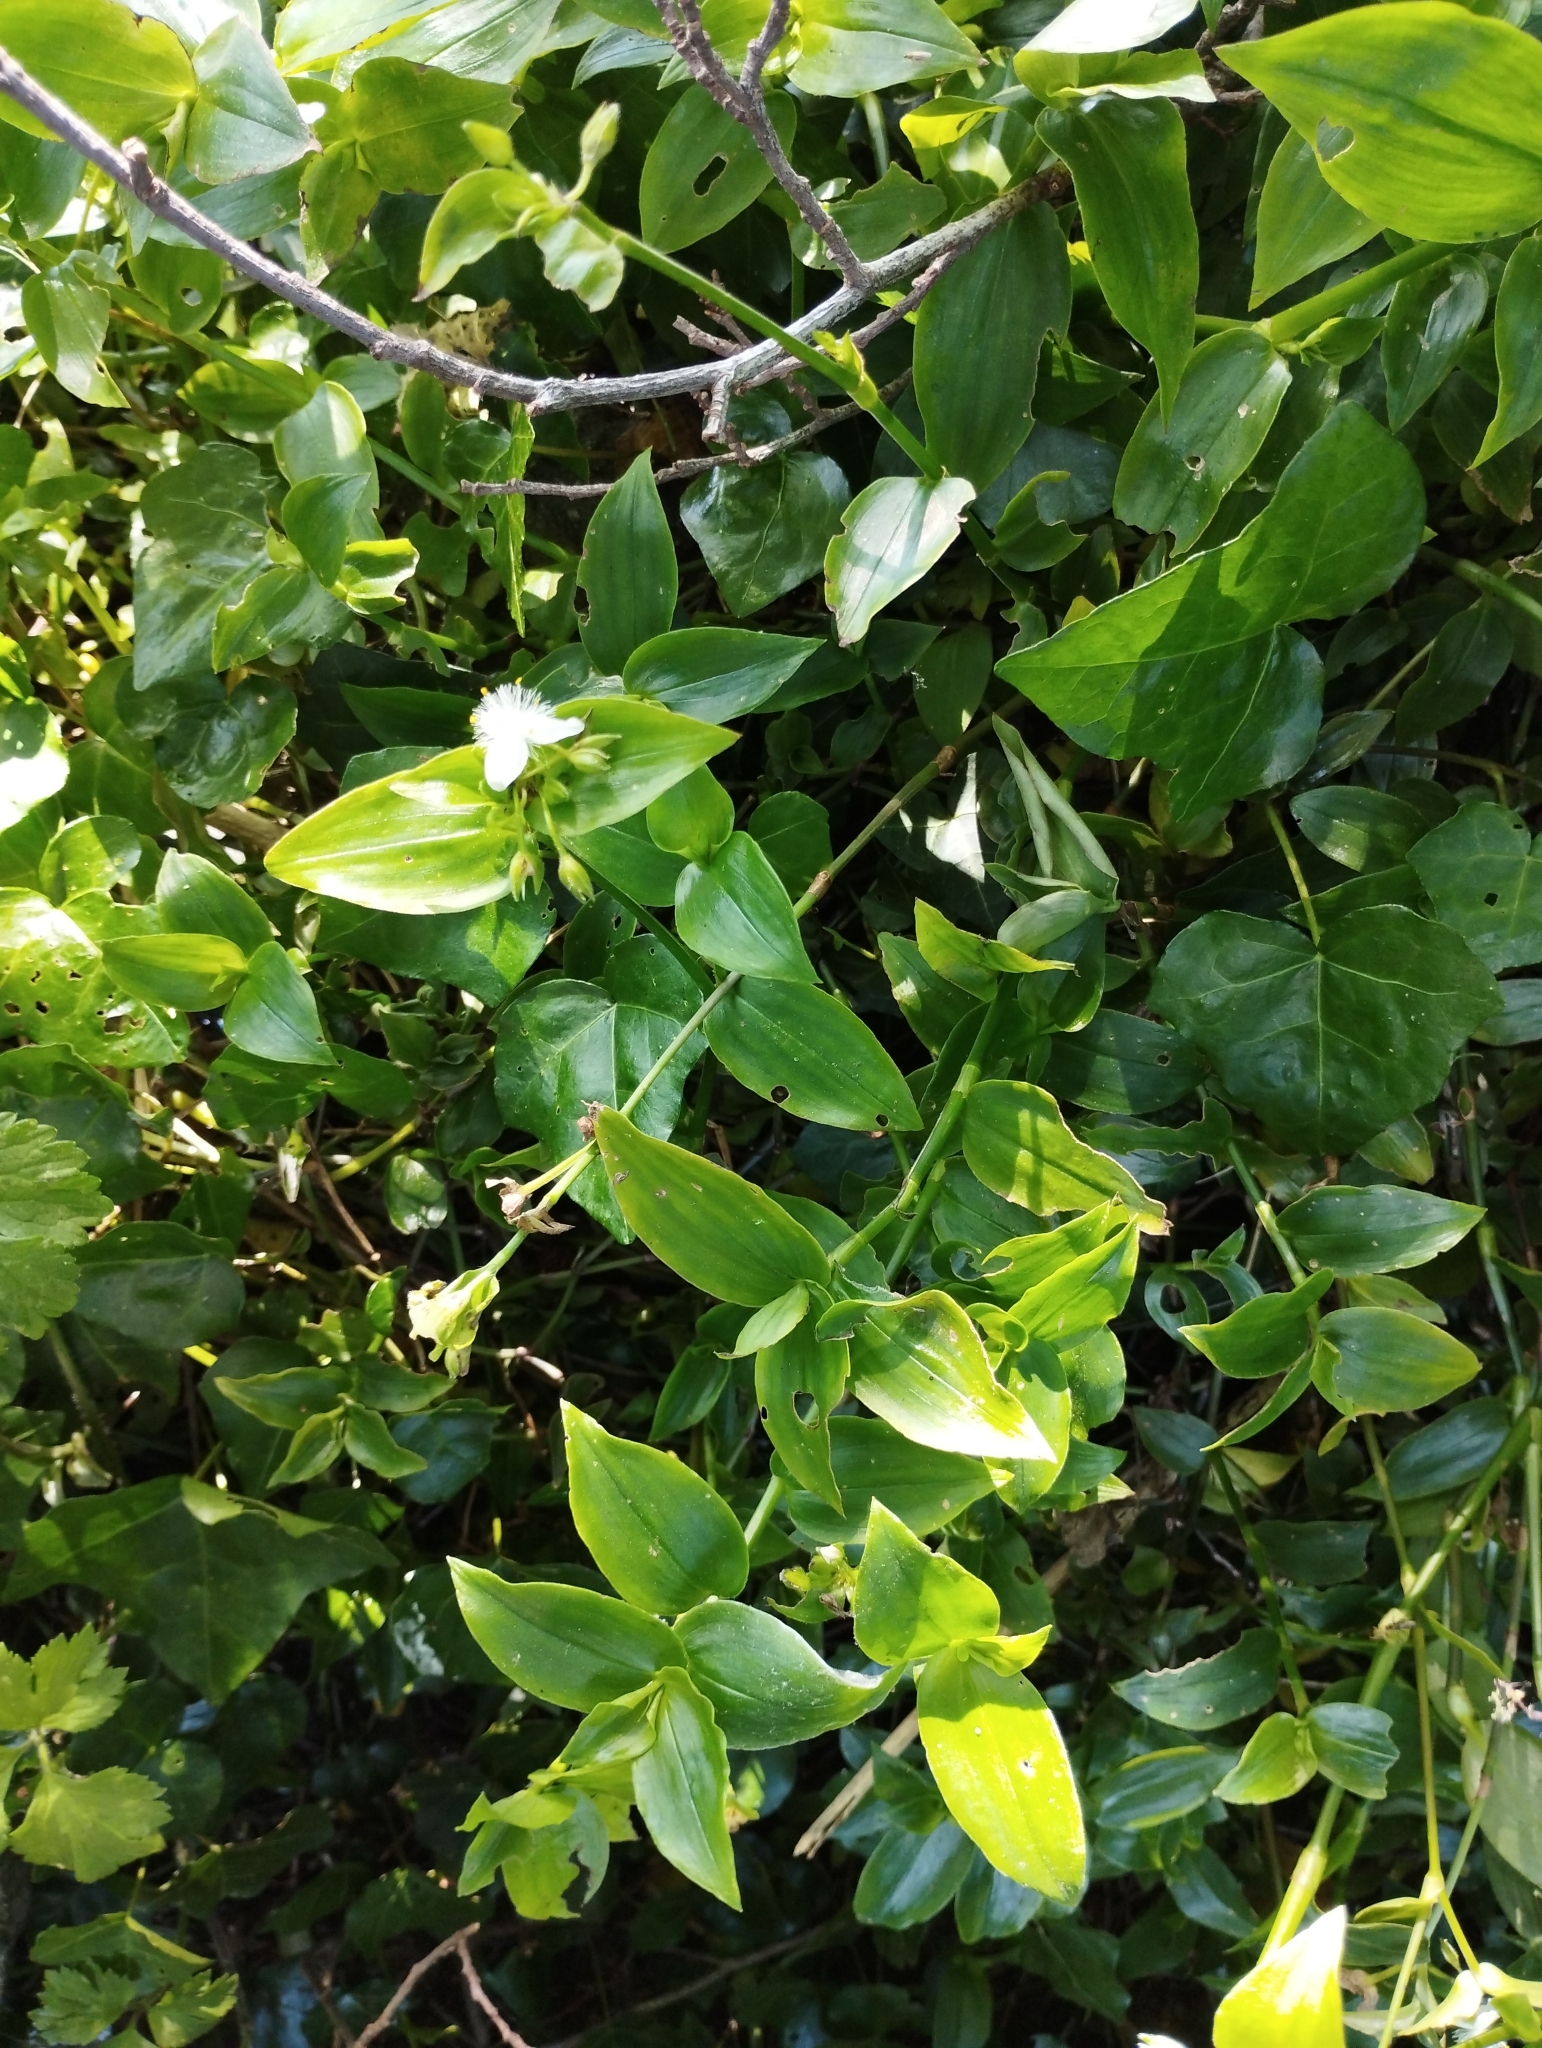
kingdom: Plantae
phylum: Tracheophyta
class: Liliopsida
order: Commelinales
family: Commelinaceae
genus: Tradescantia
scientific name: Tradescantia fluminensis
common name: Wandering-jew
